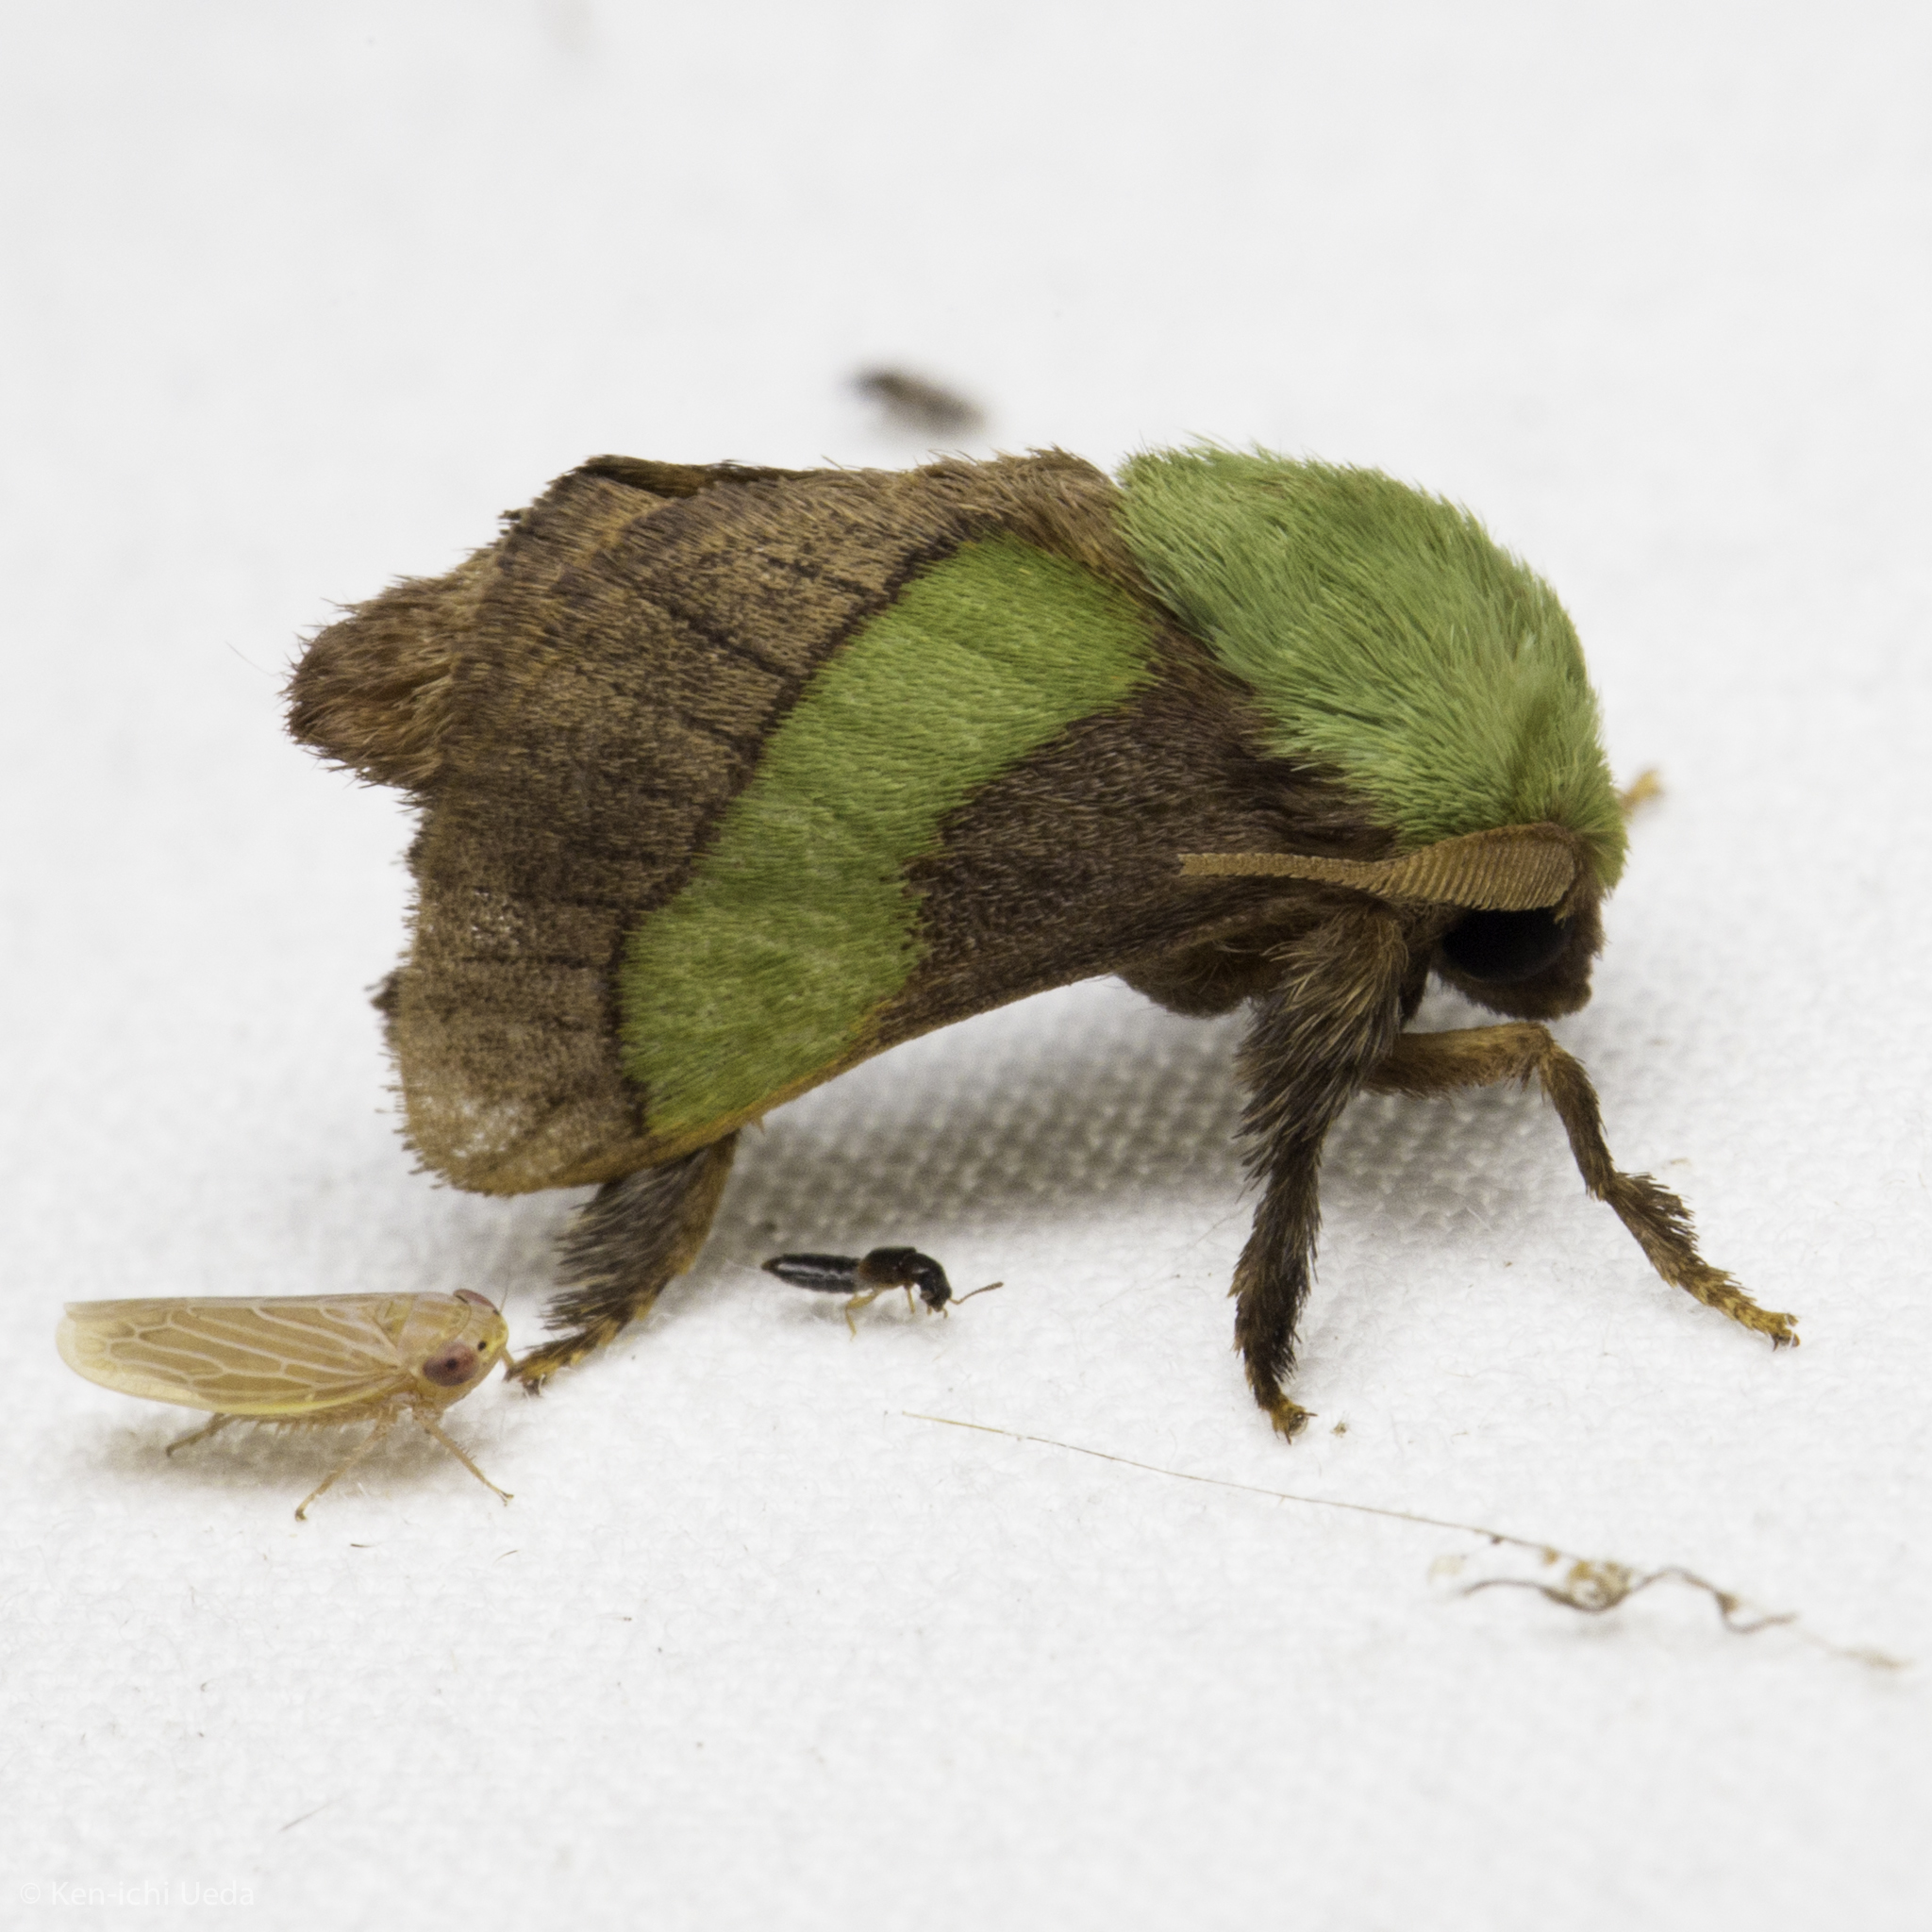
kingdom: Animalia
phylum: Arthropoda
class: Insecta
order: Lepidoptera
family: Limacodidae
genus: Parasa
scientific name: Parasa minima
